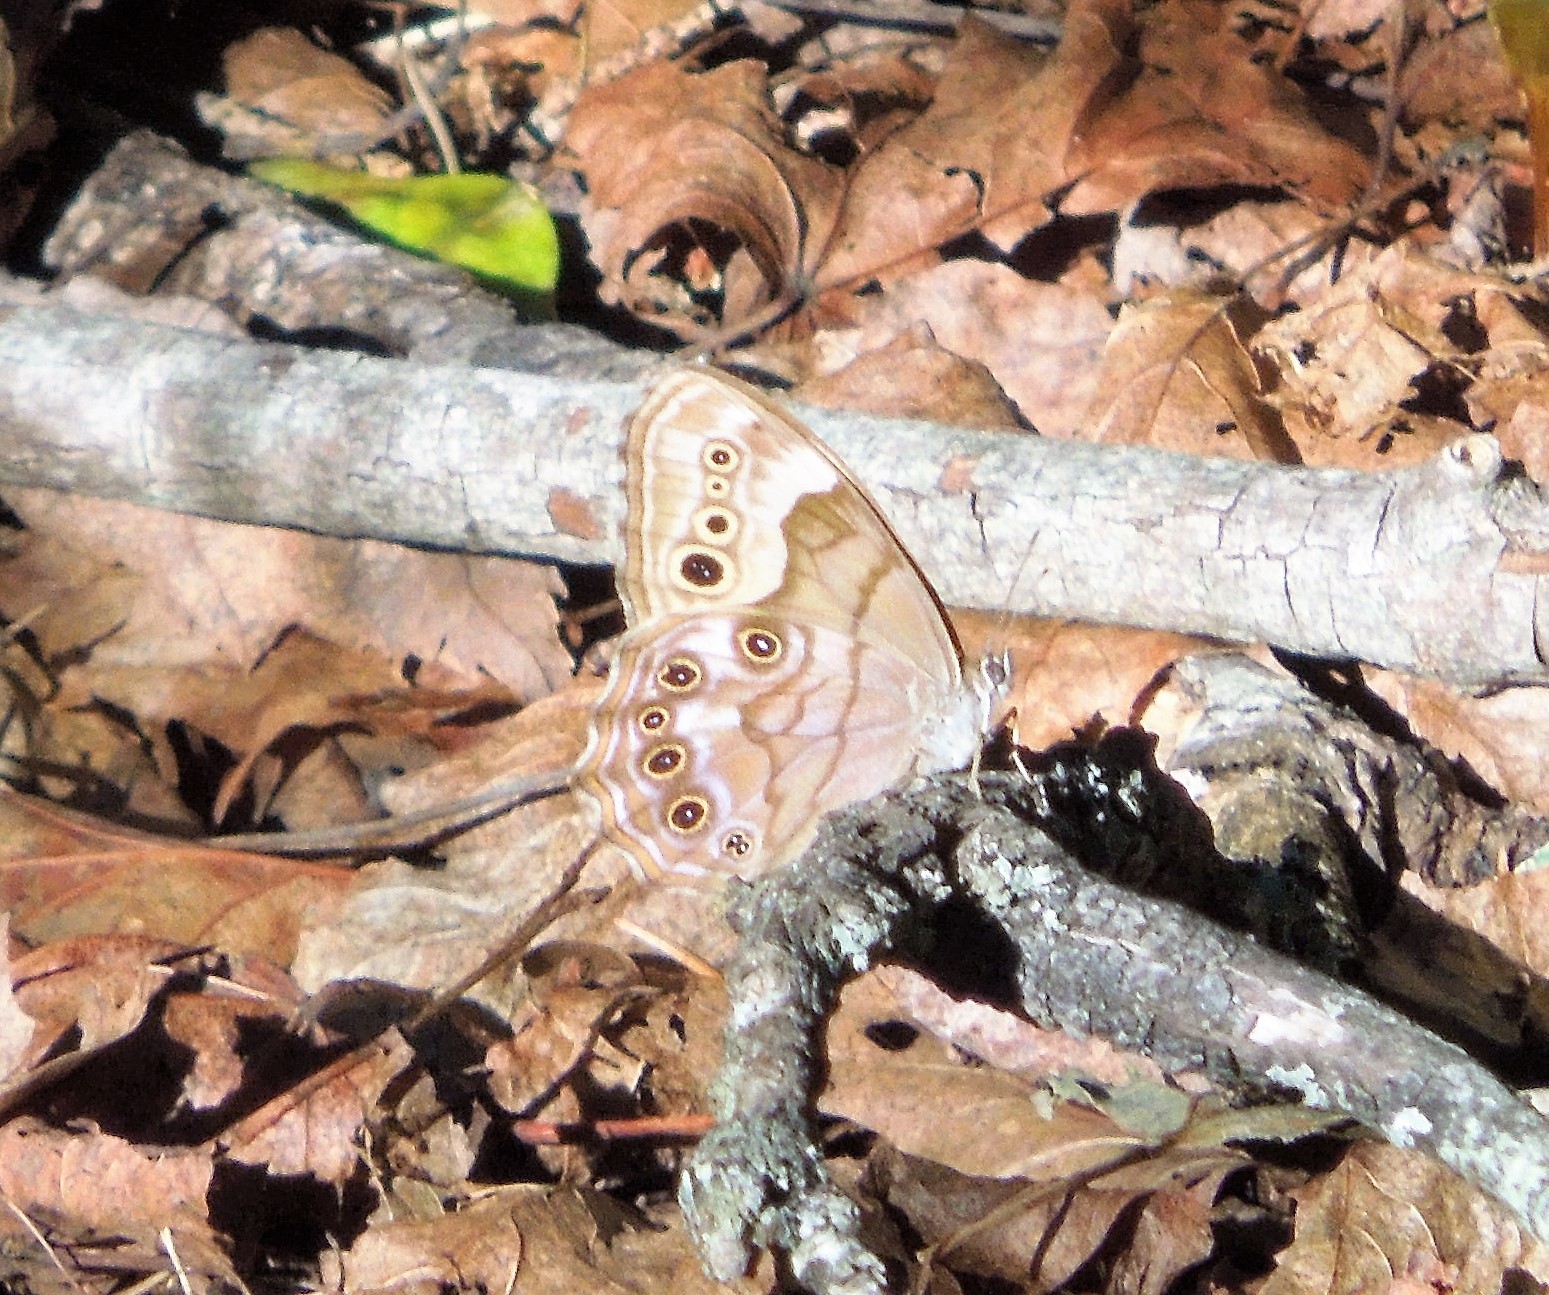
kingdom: Animalia
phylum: Arthropoda
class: Insecta
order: Lepidoptera
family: Nymphalidae
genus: Lethe
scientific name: Lethe anthedon
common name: Northern pearly-eye
